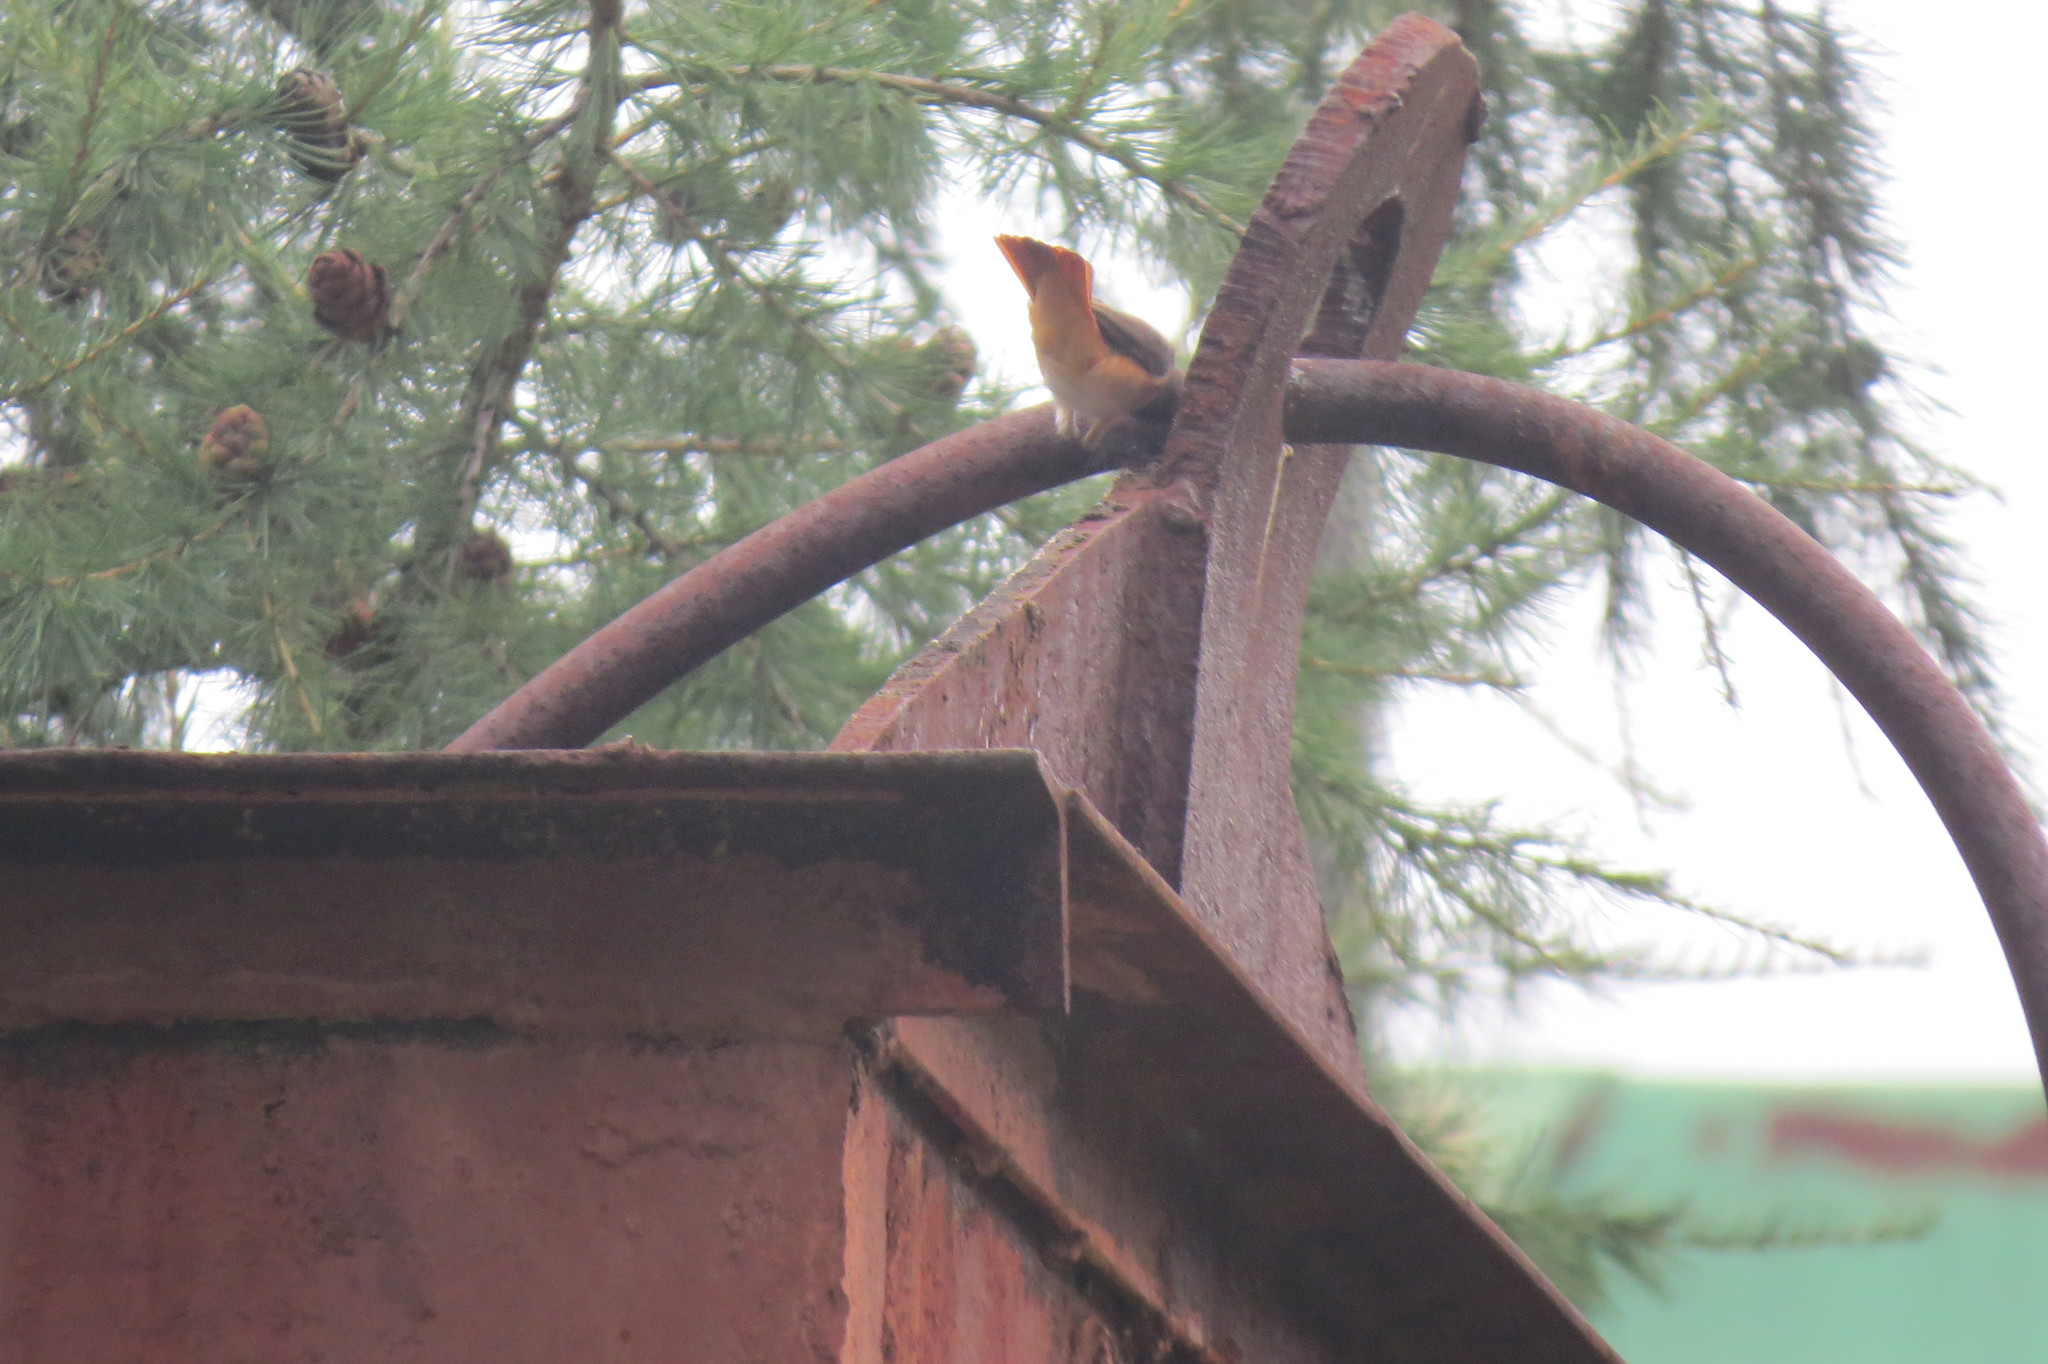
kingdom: Animalia
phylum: Chordata
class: Aves
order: Passeriformes
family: Muscicapidae
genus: Phoenicurus
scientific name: Phoenicurus phoenicurus
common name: Common redstart
